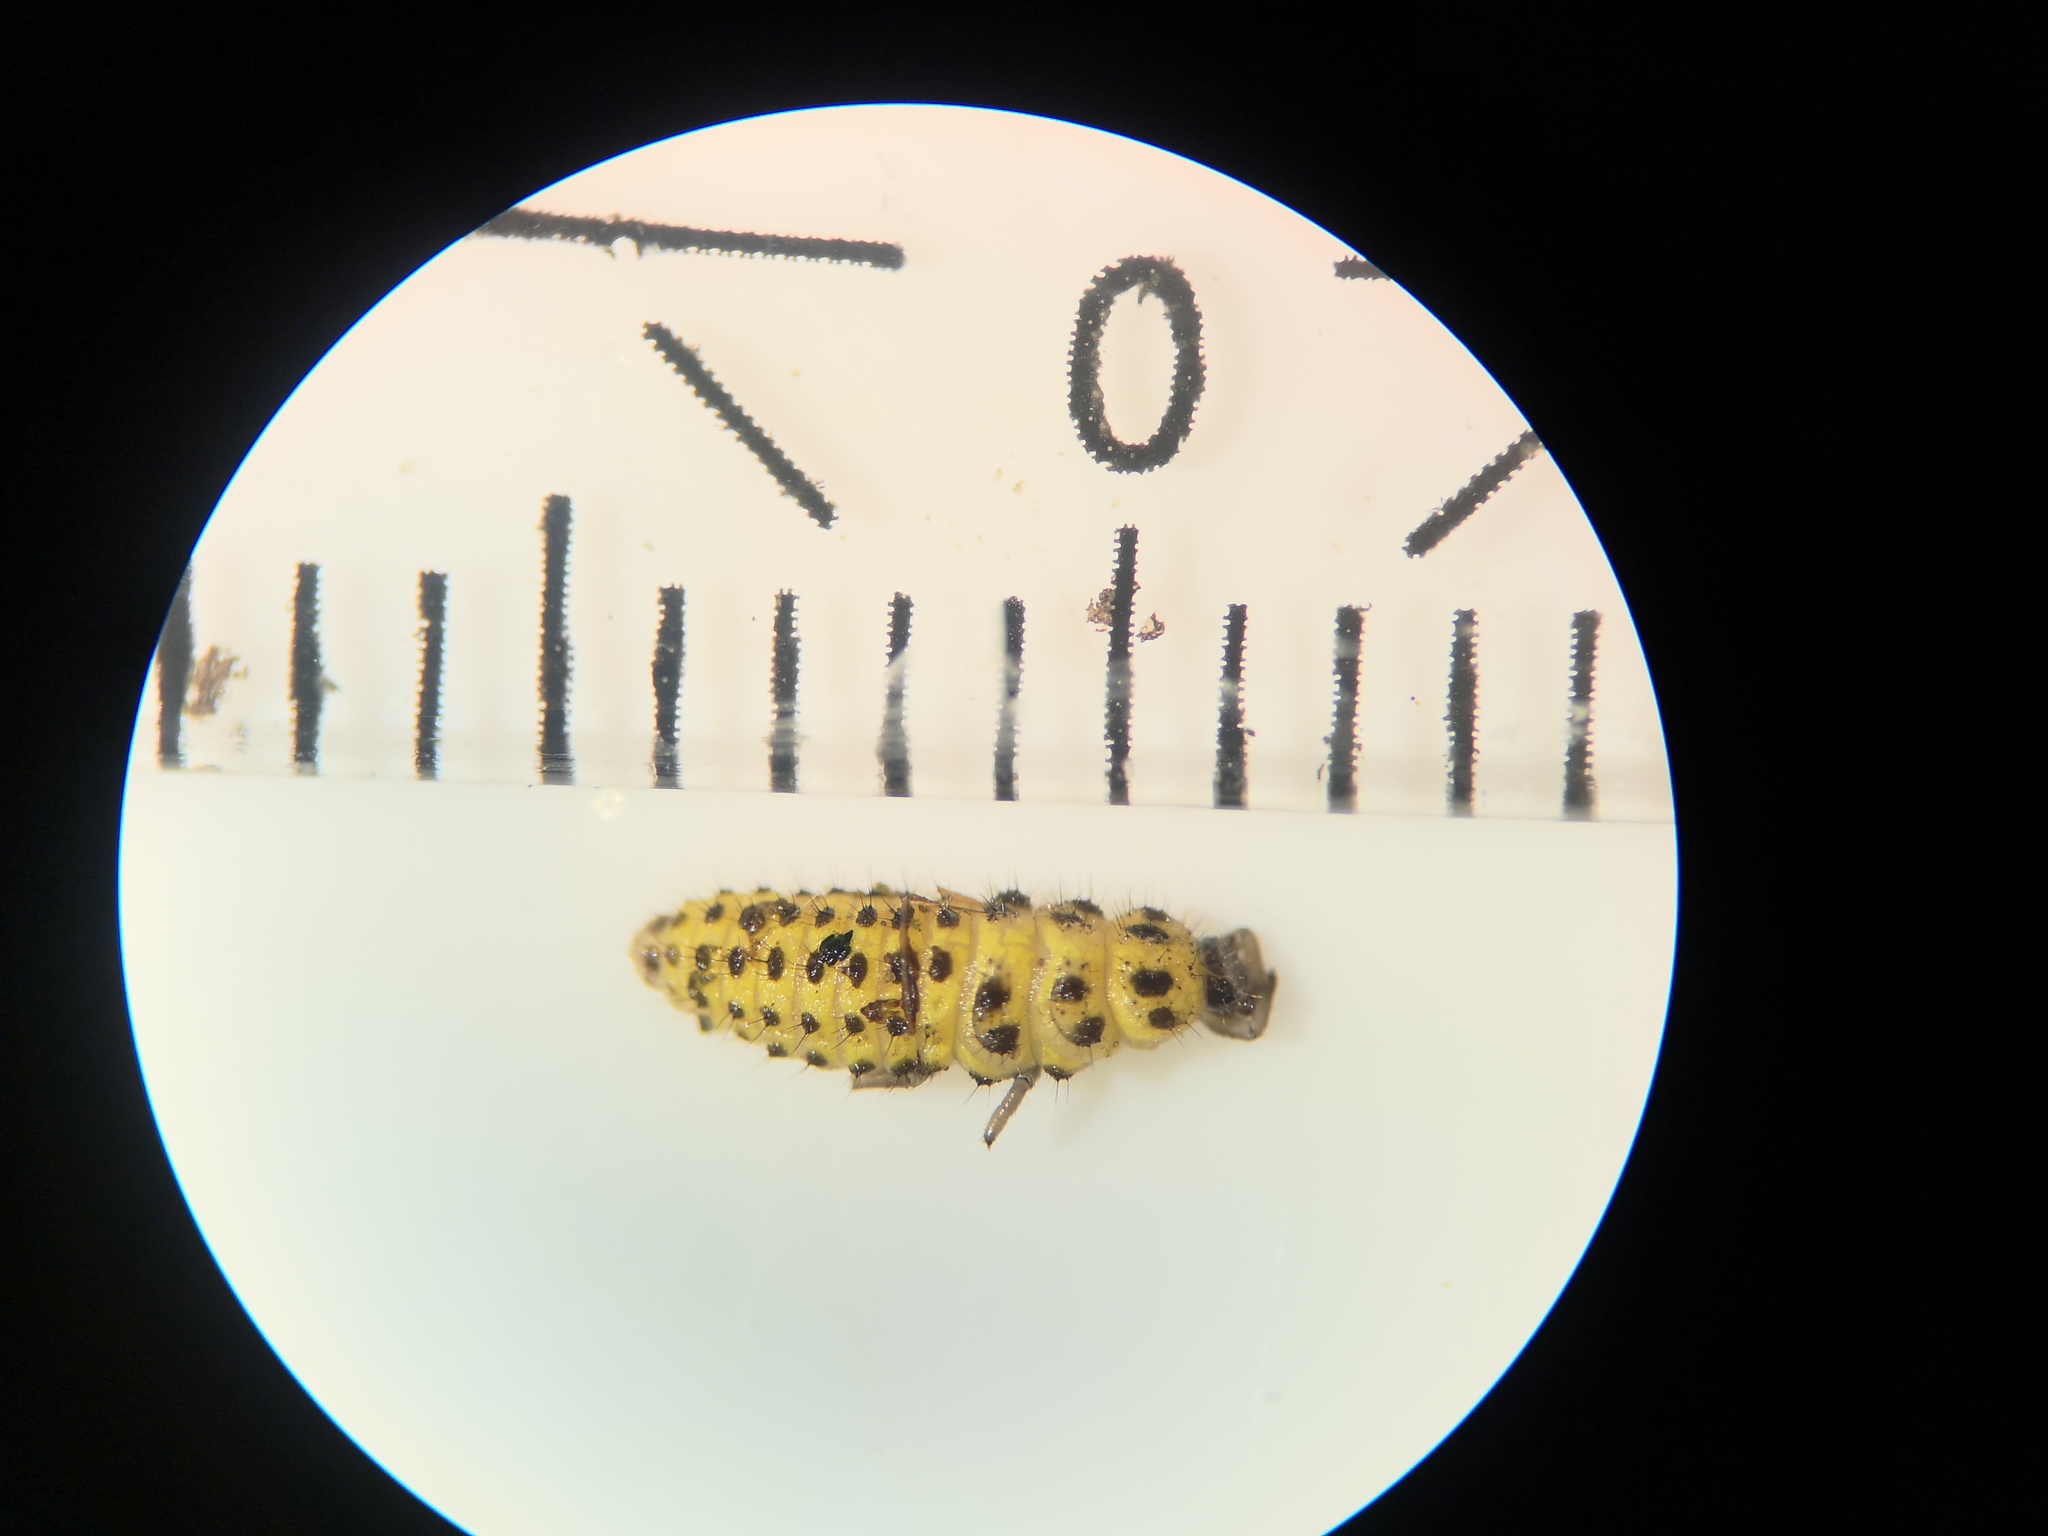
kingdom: Animalia
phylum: Arthropoda
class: Insecta
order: Coleoptera
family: Coccinellidae
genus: Psyllobora
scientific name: Psyllobora vigintiduopunctata
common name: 22-spot ladybird
